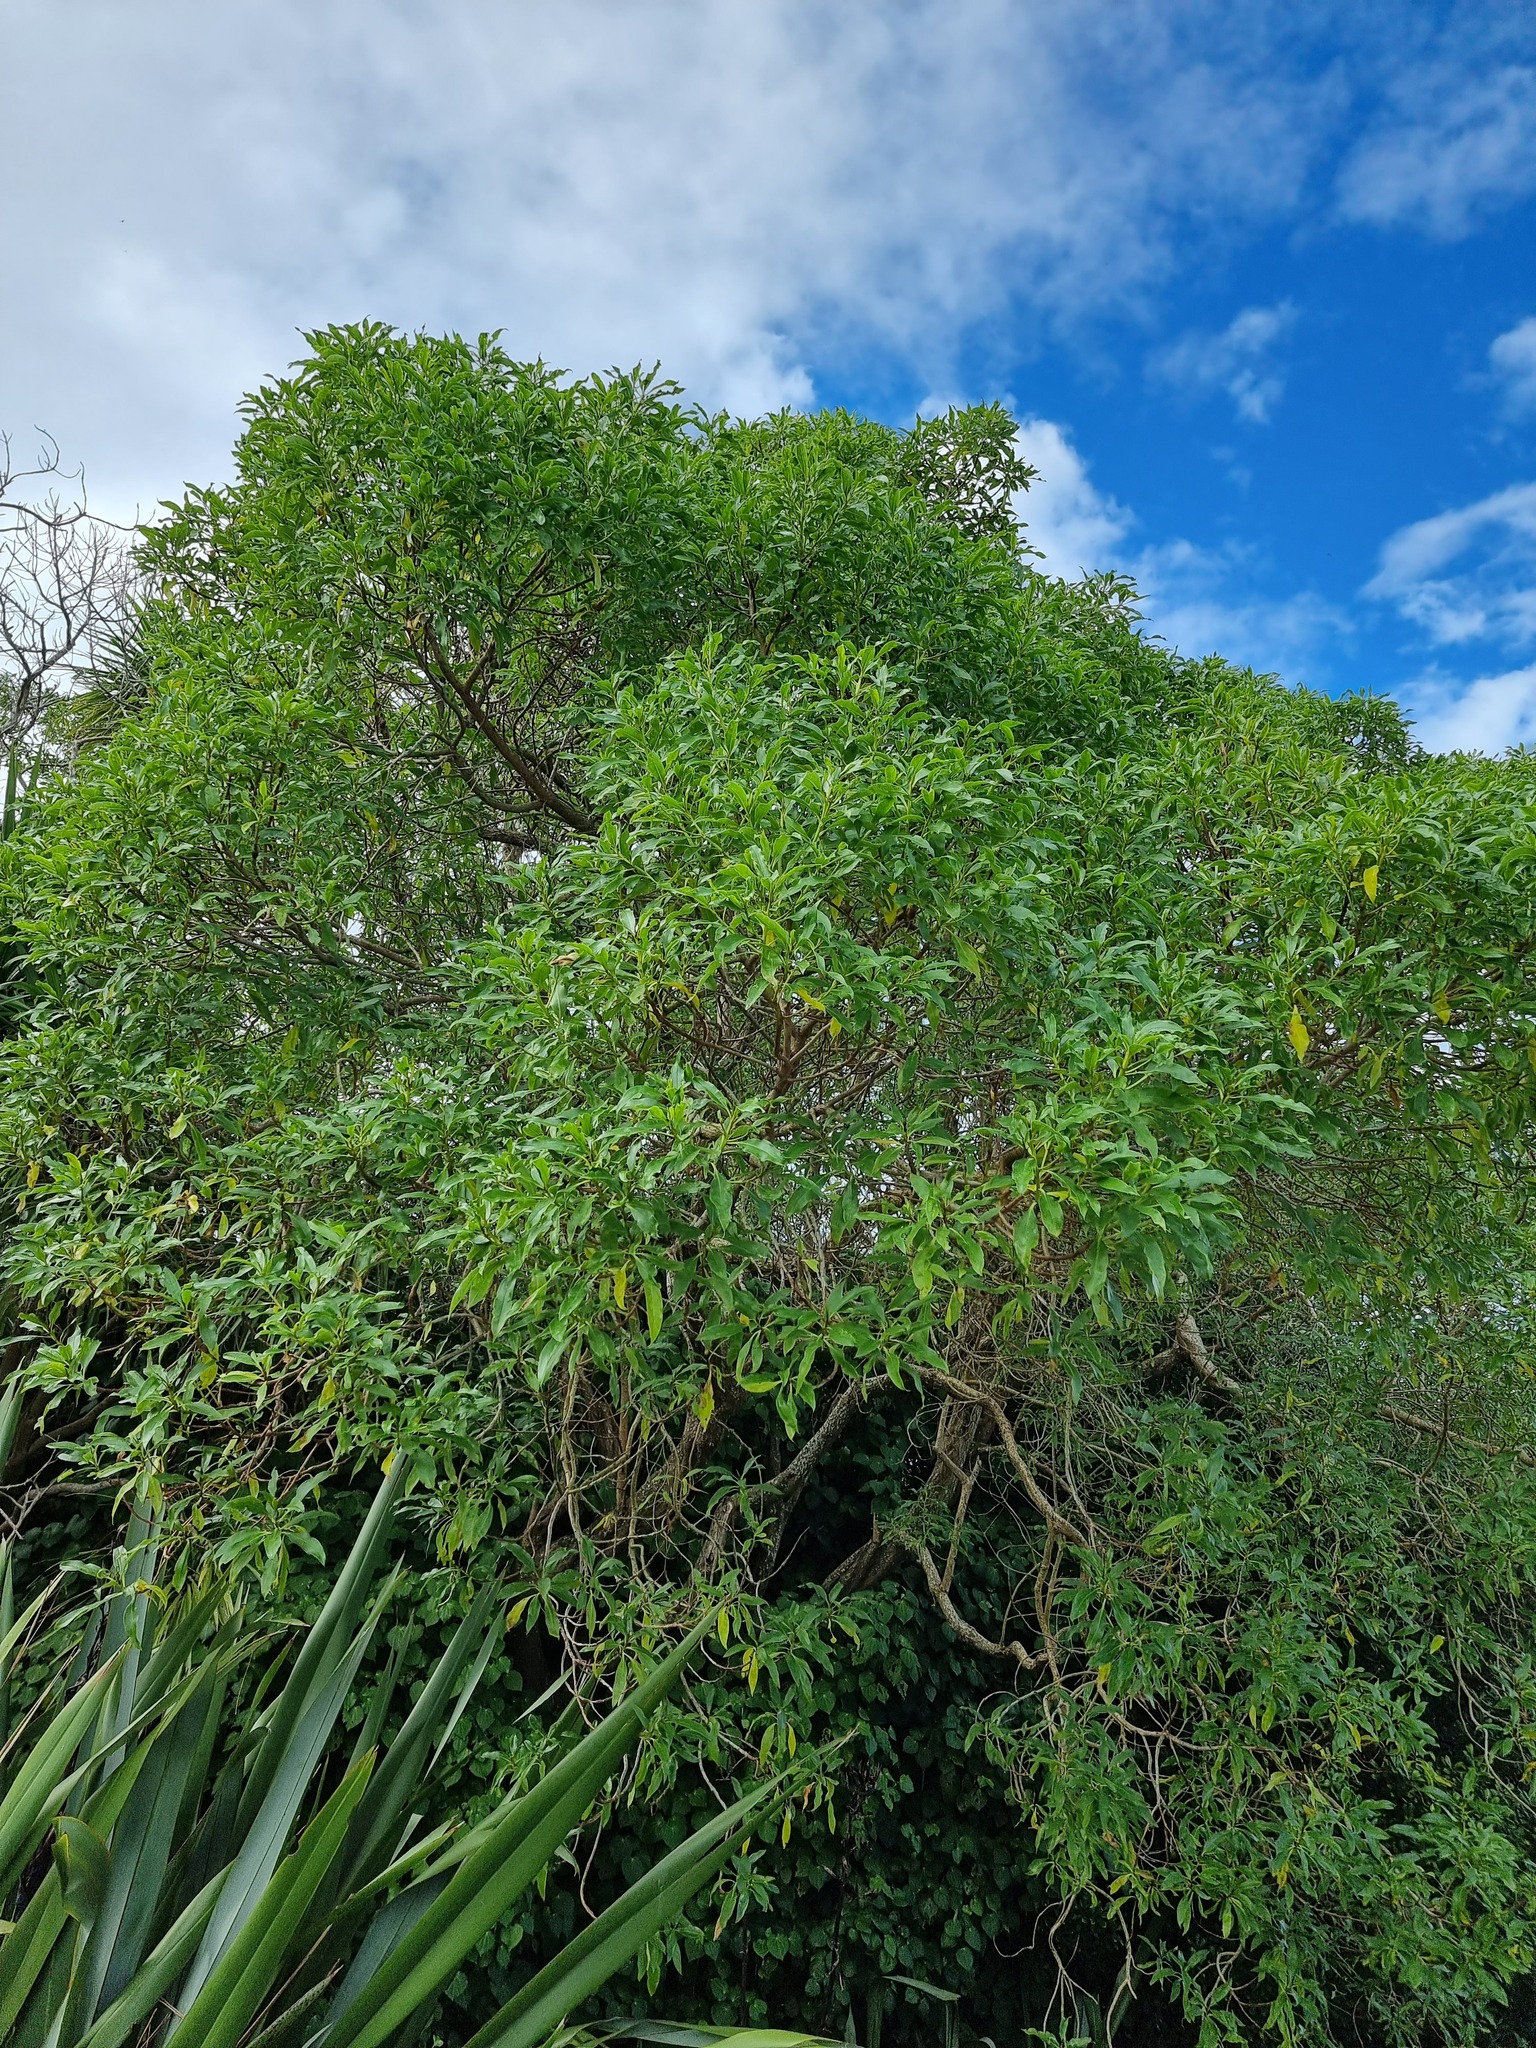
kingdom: Plantae
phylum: Tracheophyta
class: Magnoliopsida
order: Lamiales
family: Scrophulariaceae
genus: Myoporum
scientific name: Myoporum laetum
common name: Ngaio tree
